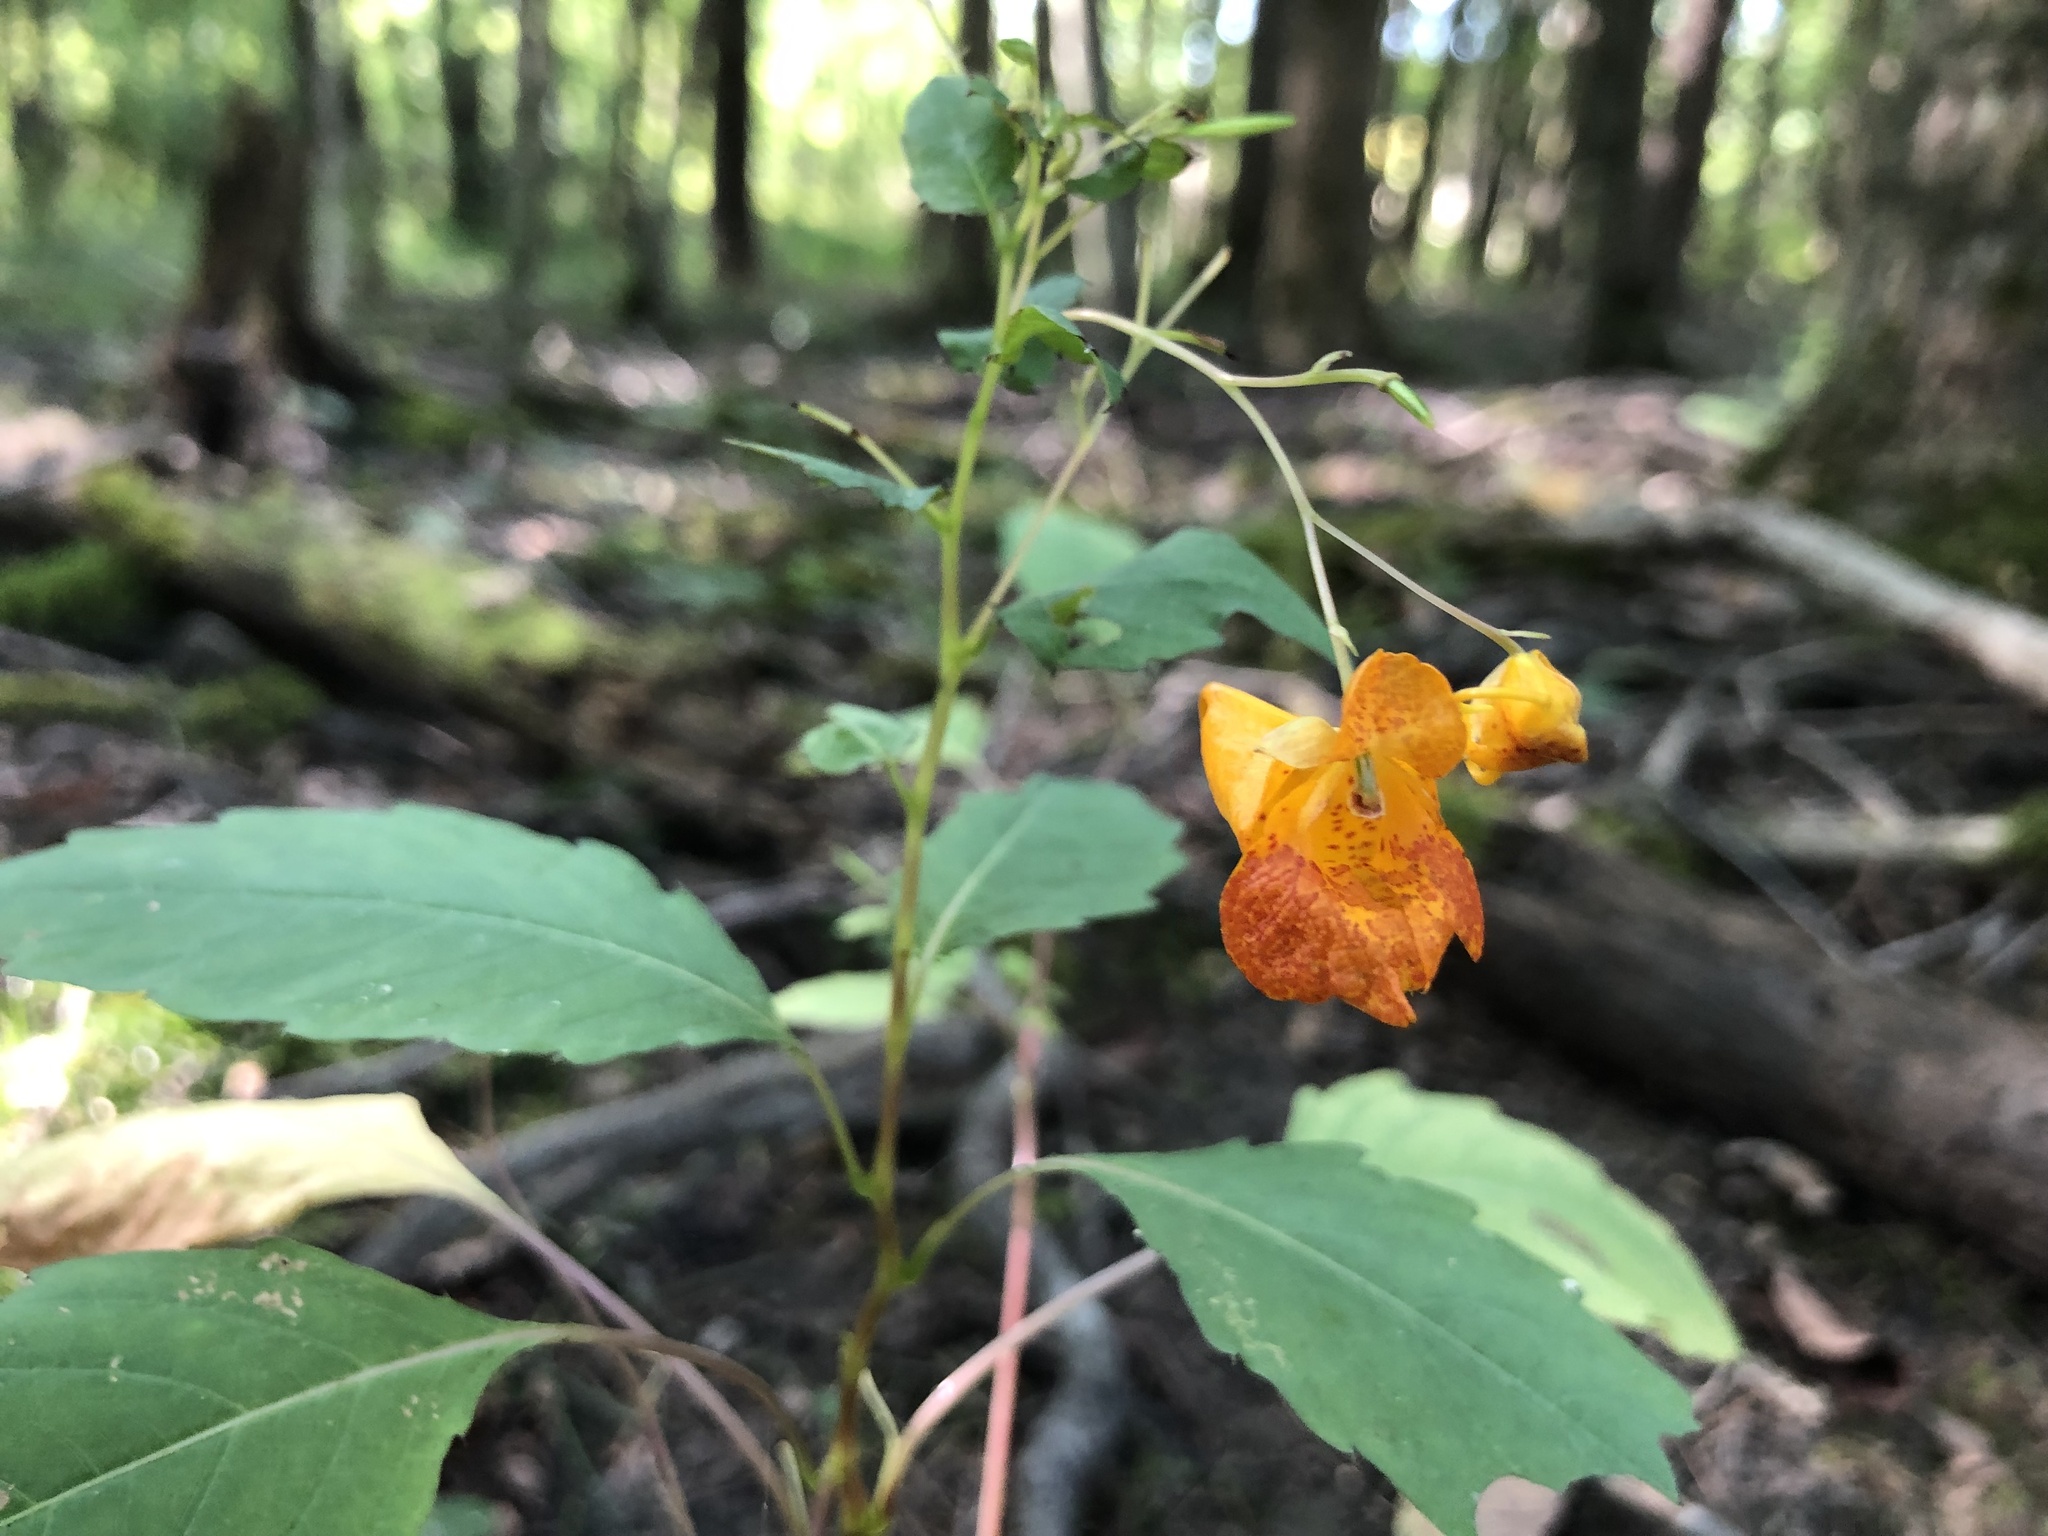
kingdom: Plantae
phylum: Tracheophyta
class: Magnoliopsida
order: Ericales
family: Balsaminaceae
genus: Impatiens
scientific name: Impatiens capensis
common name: Orange balsam
